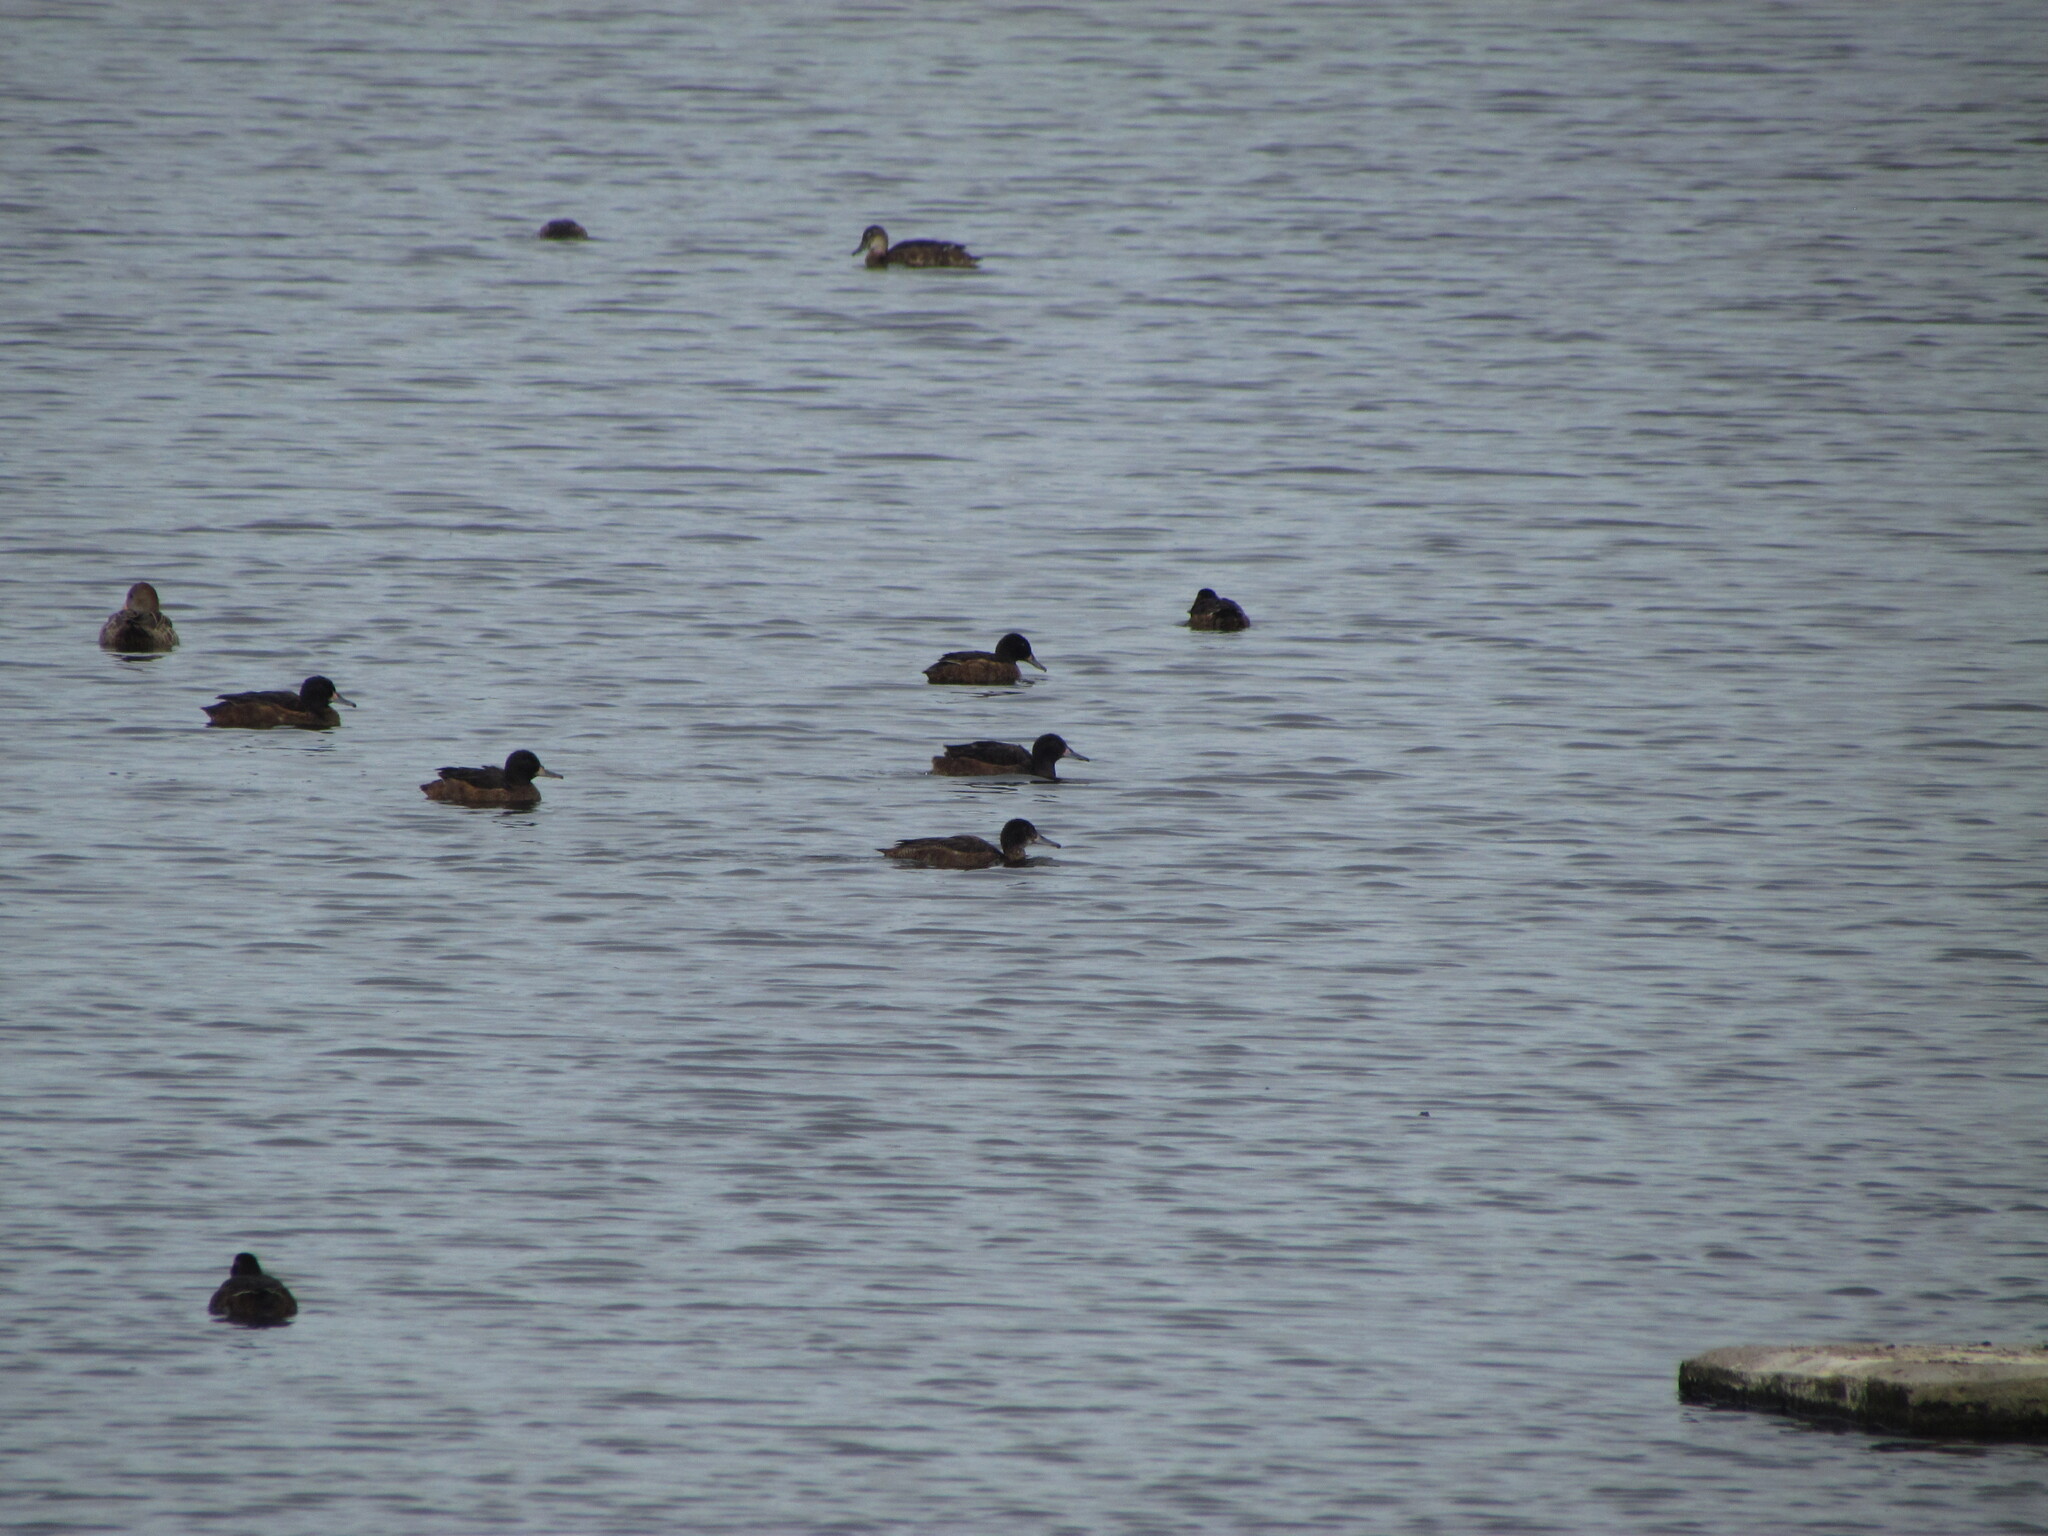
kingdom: Animalia
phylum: Chordata
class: Aves
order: Anseriformes
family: Anatidae
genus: Heteronetta
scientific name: Heteronetta atricapilla
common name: Black-headed duck
